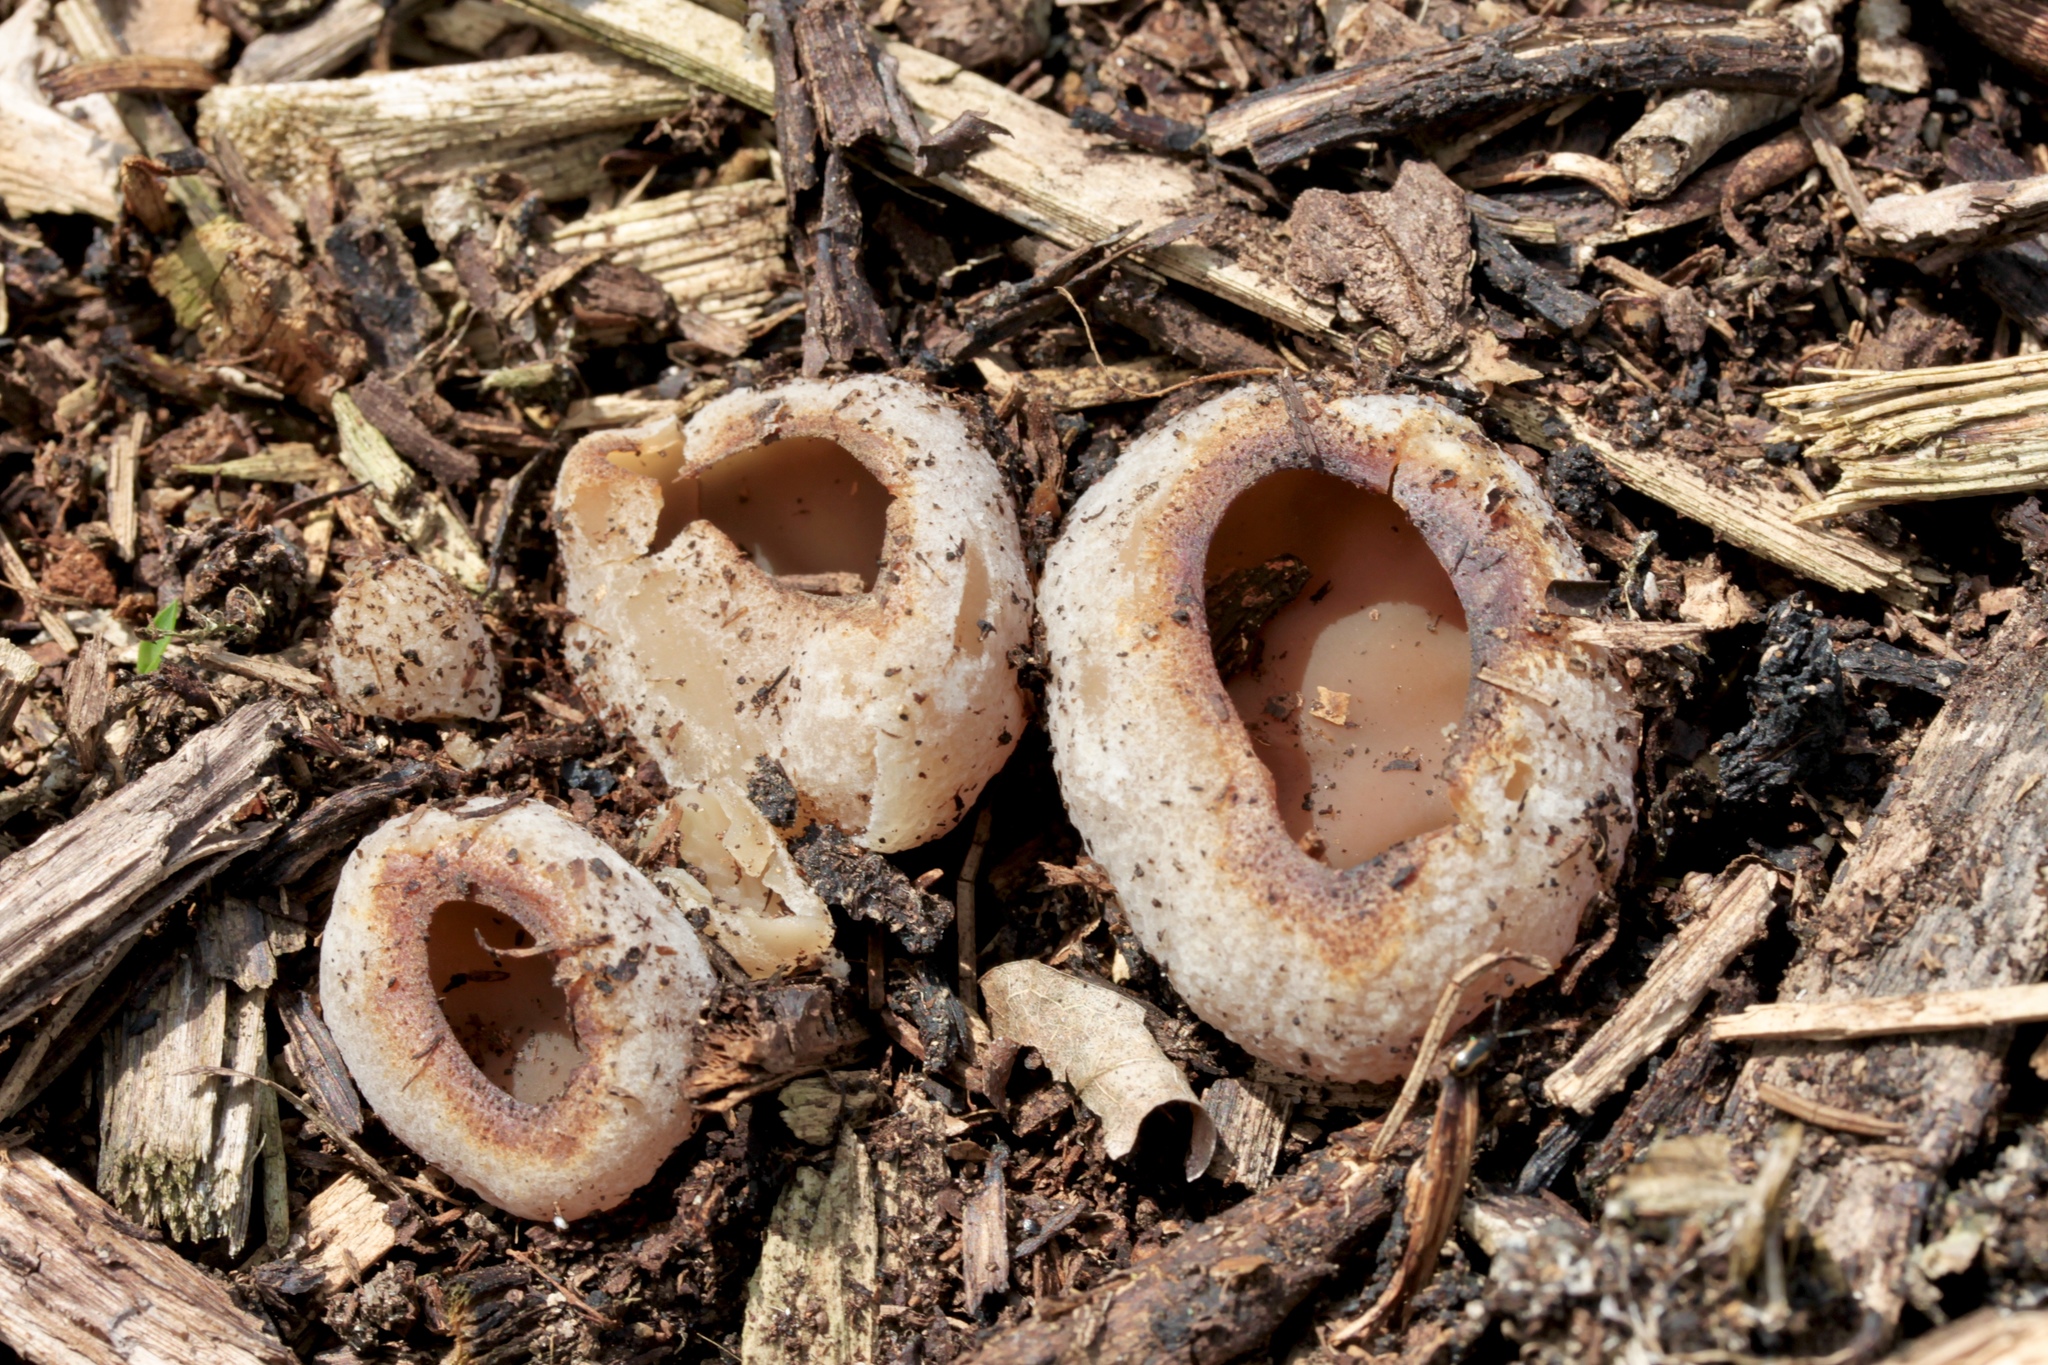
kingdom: Fungi
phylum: Ascomycota
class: Pezizomycetes
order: Pezizales
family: Pezizaceae
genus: Peziza
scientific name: Peziza vesiculosa
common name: Blistered cup
